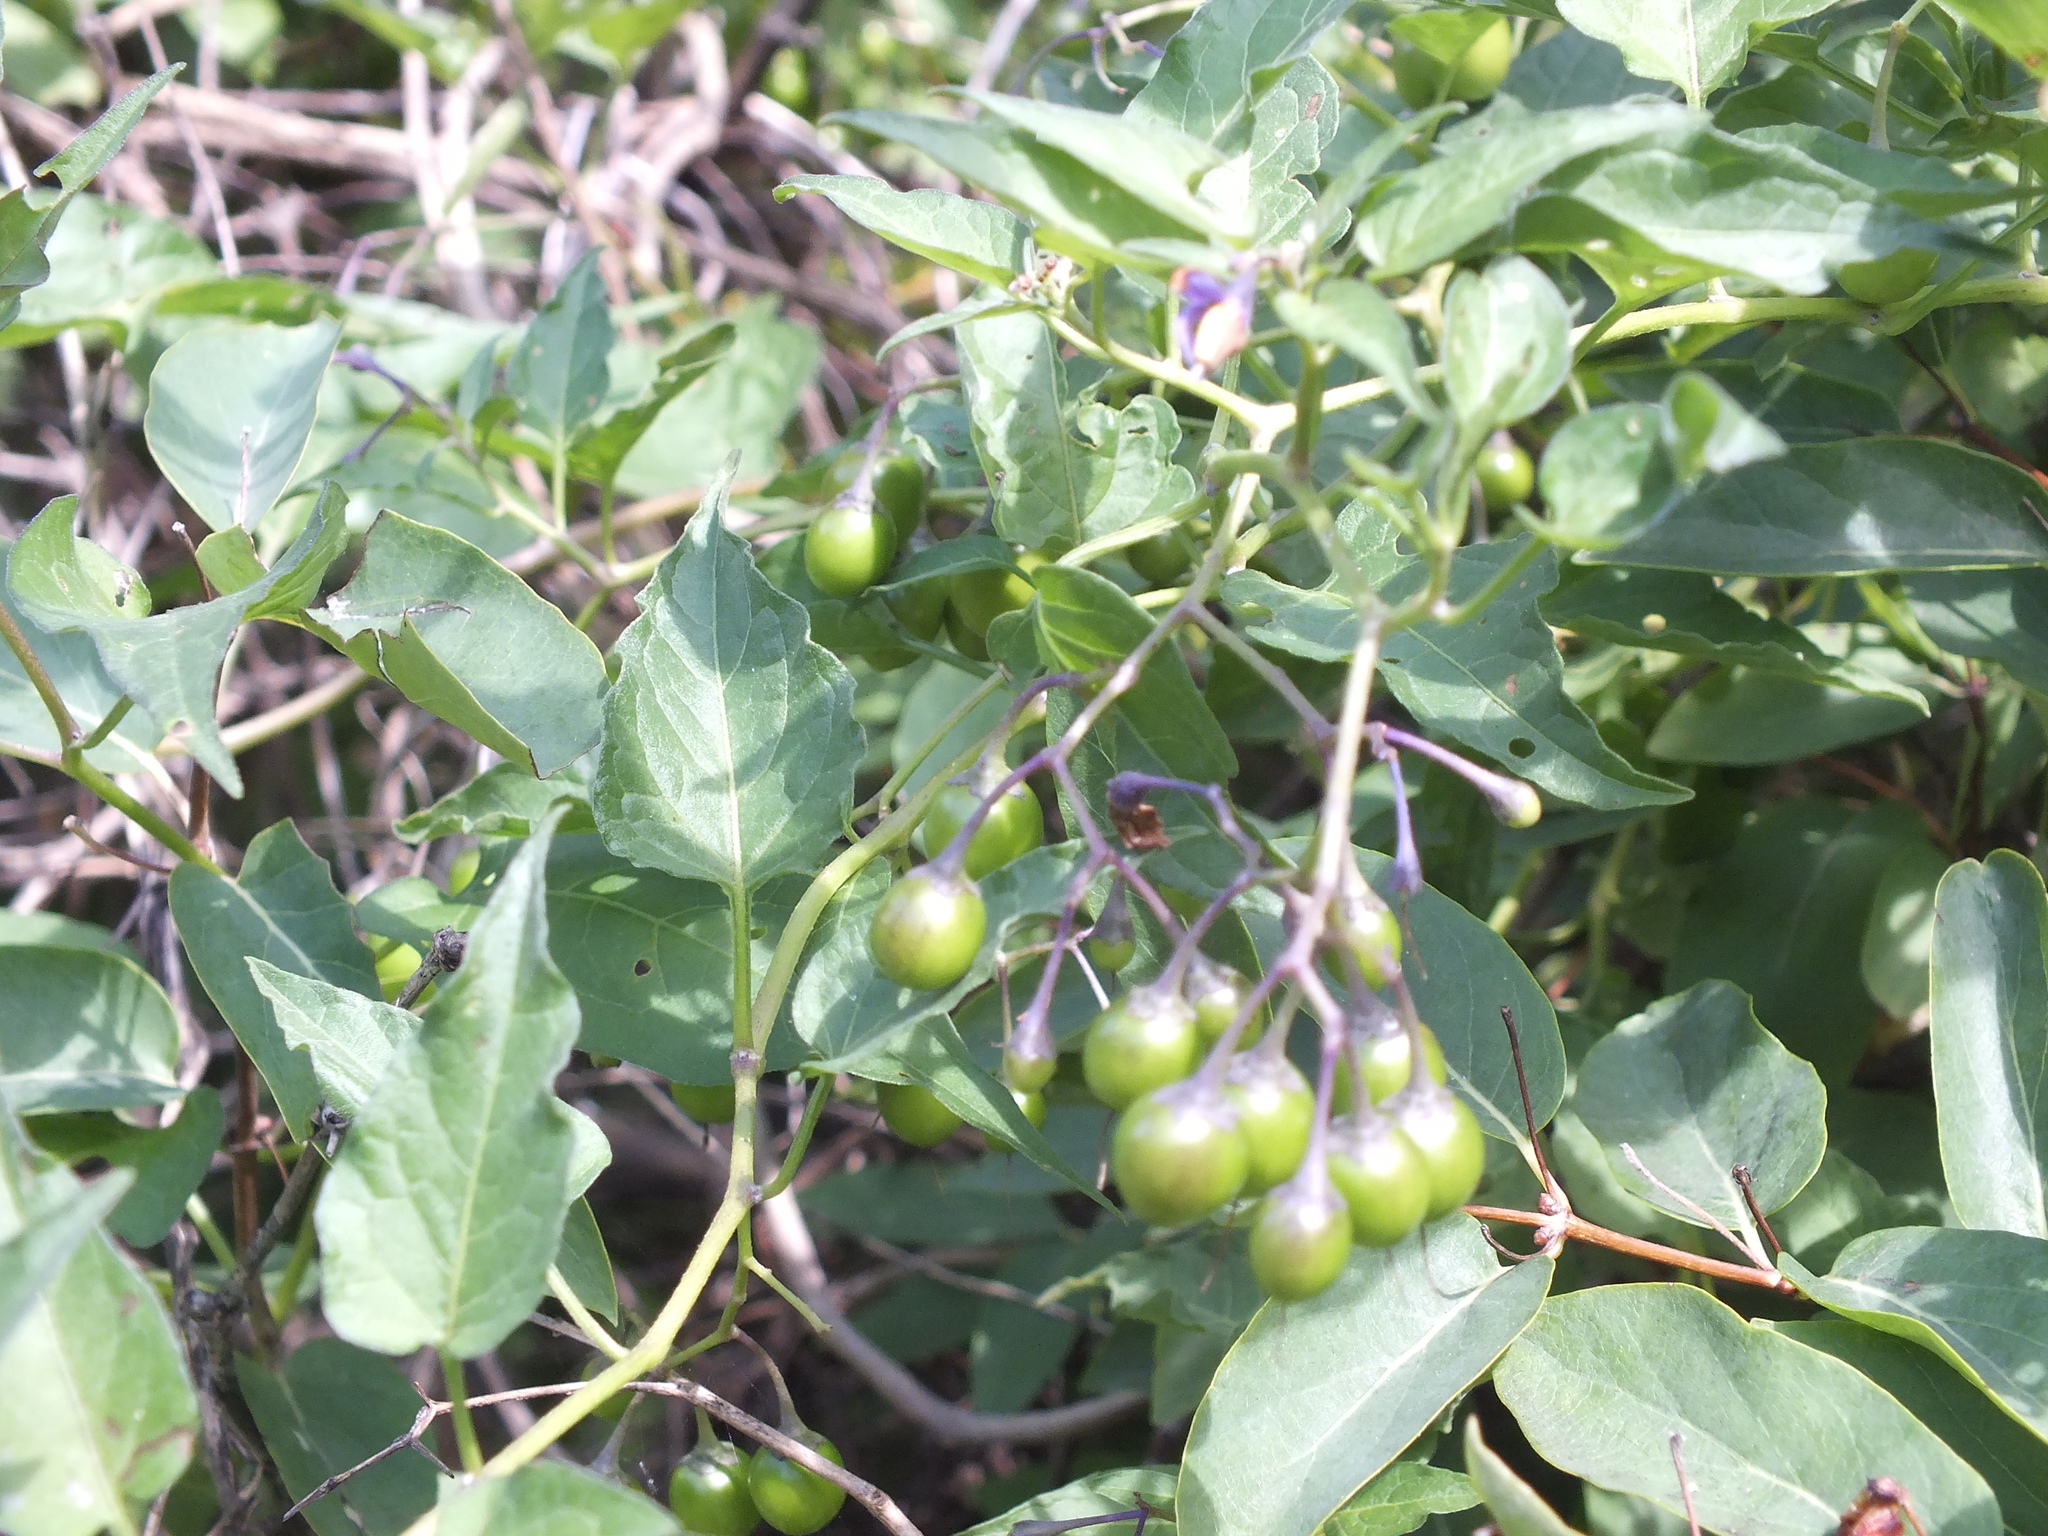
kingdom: Plantae
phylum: Tracheophyta
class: Magnoliopsida
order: Solanales
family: Solanaceae
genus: Solanum
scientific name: Solanum dulcamara
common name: Climbing nightshade
